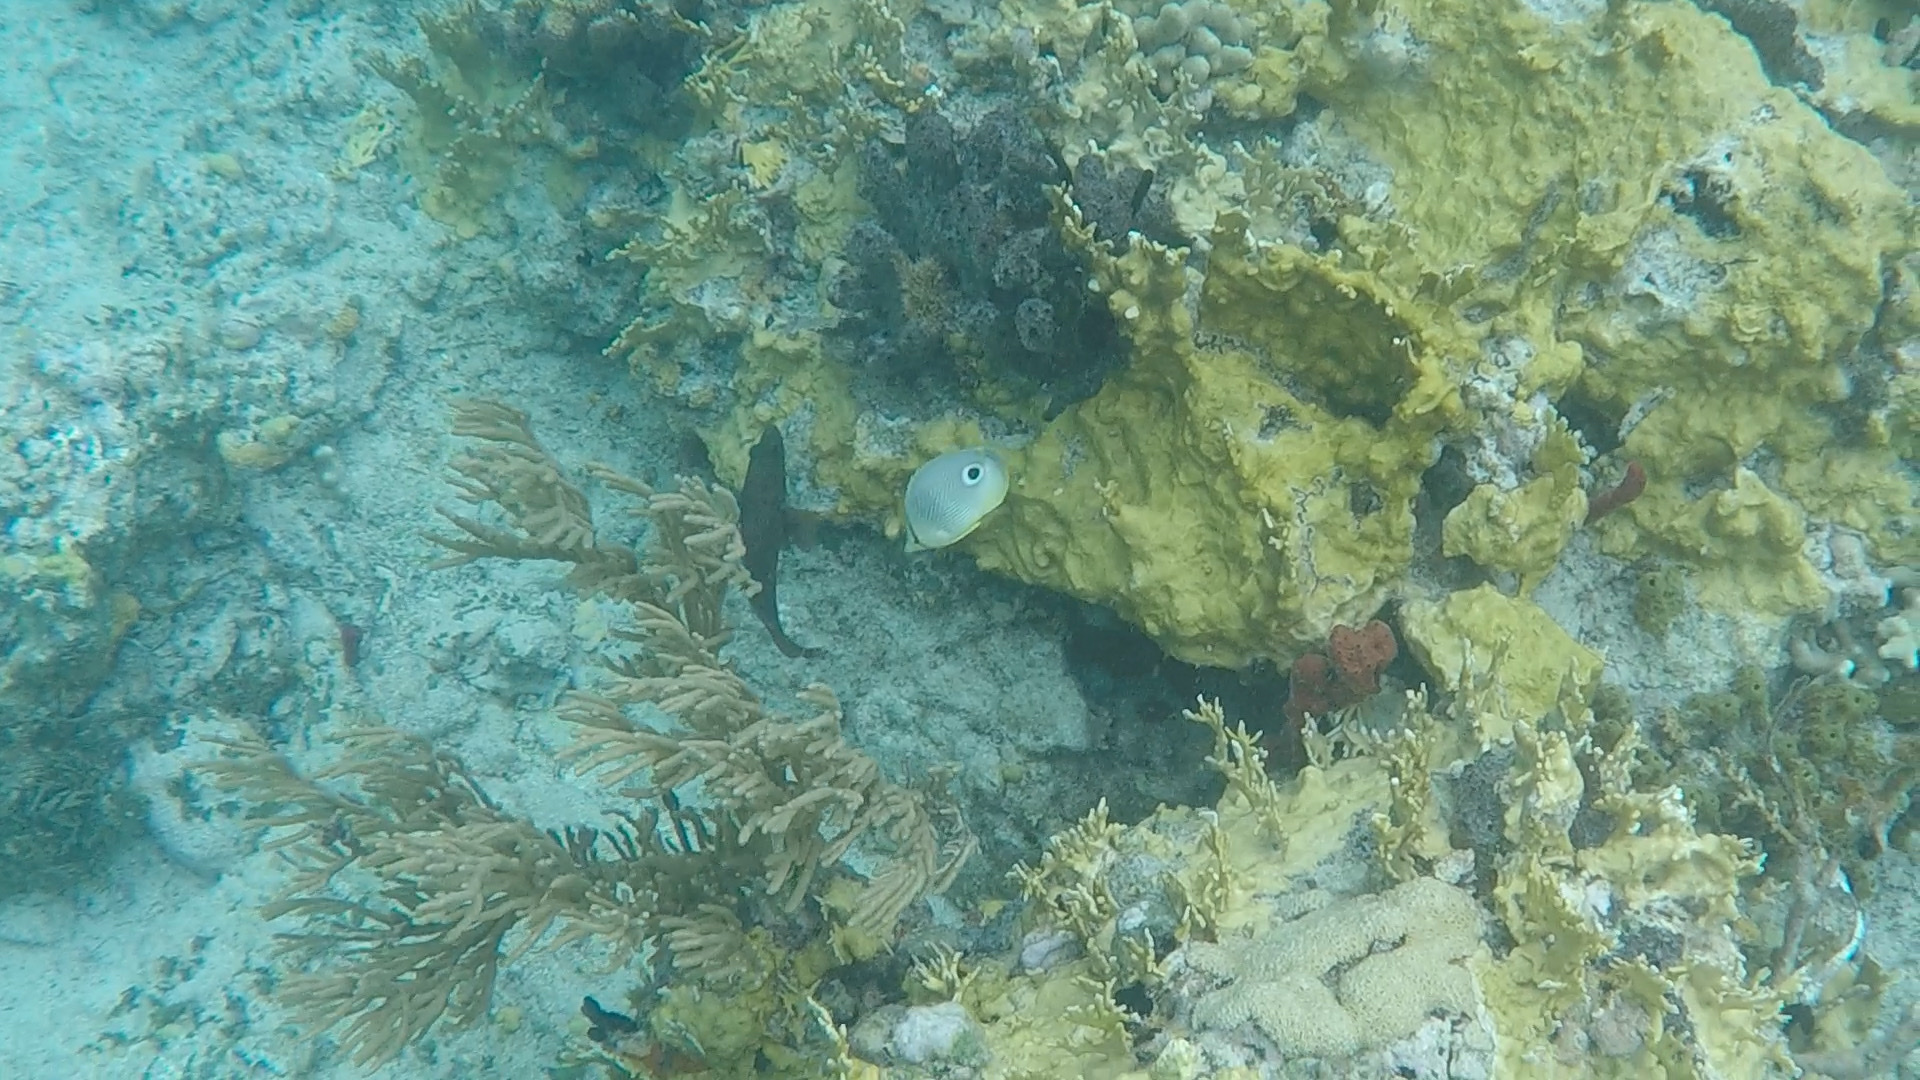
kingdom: Animalia
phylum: Chordata
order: Perciformes
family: Chaetodontidae
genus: Chaetodon
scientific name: Chaetodon capistratus
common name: Kete
